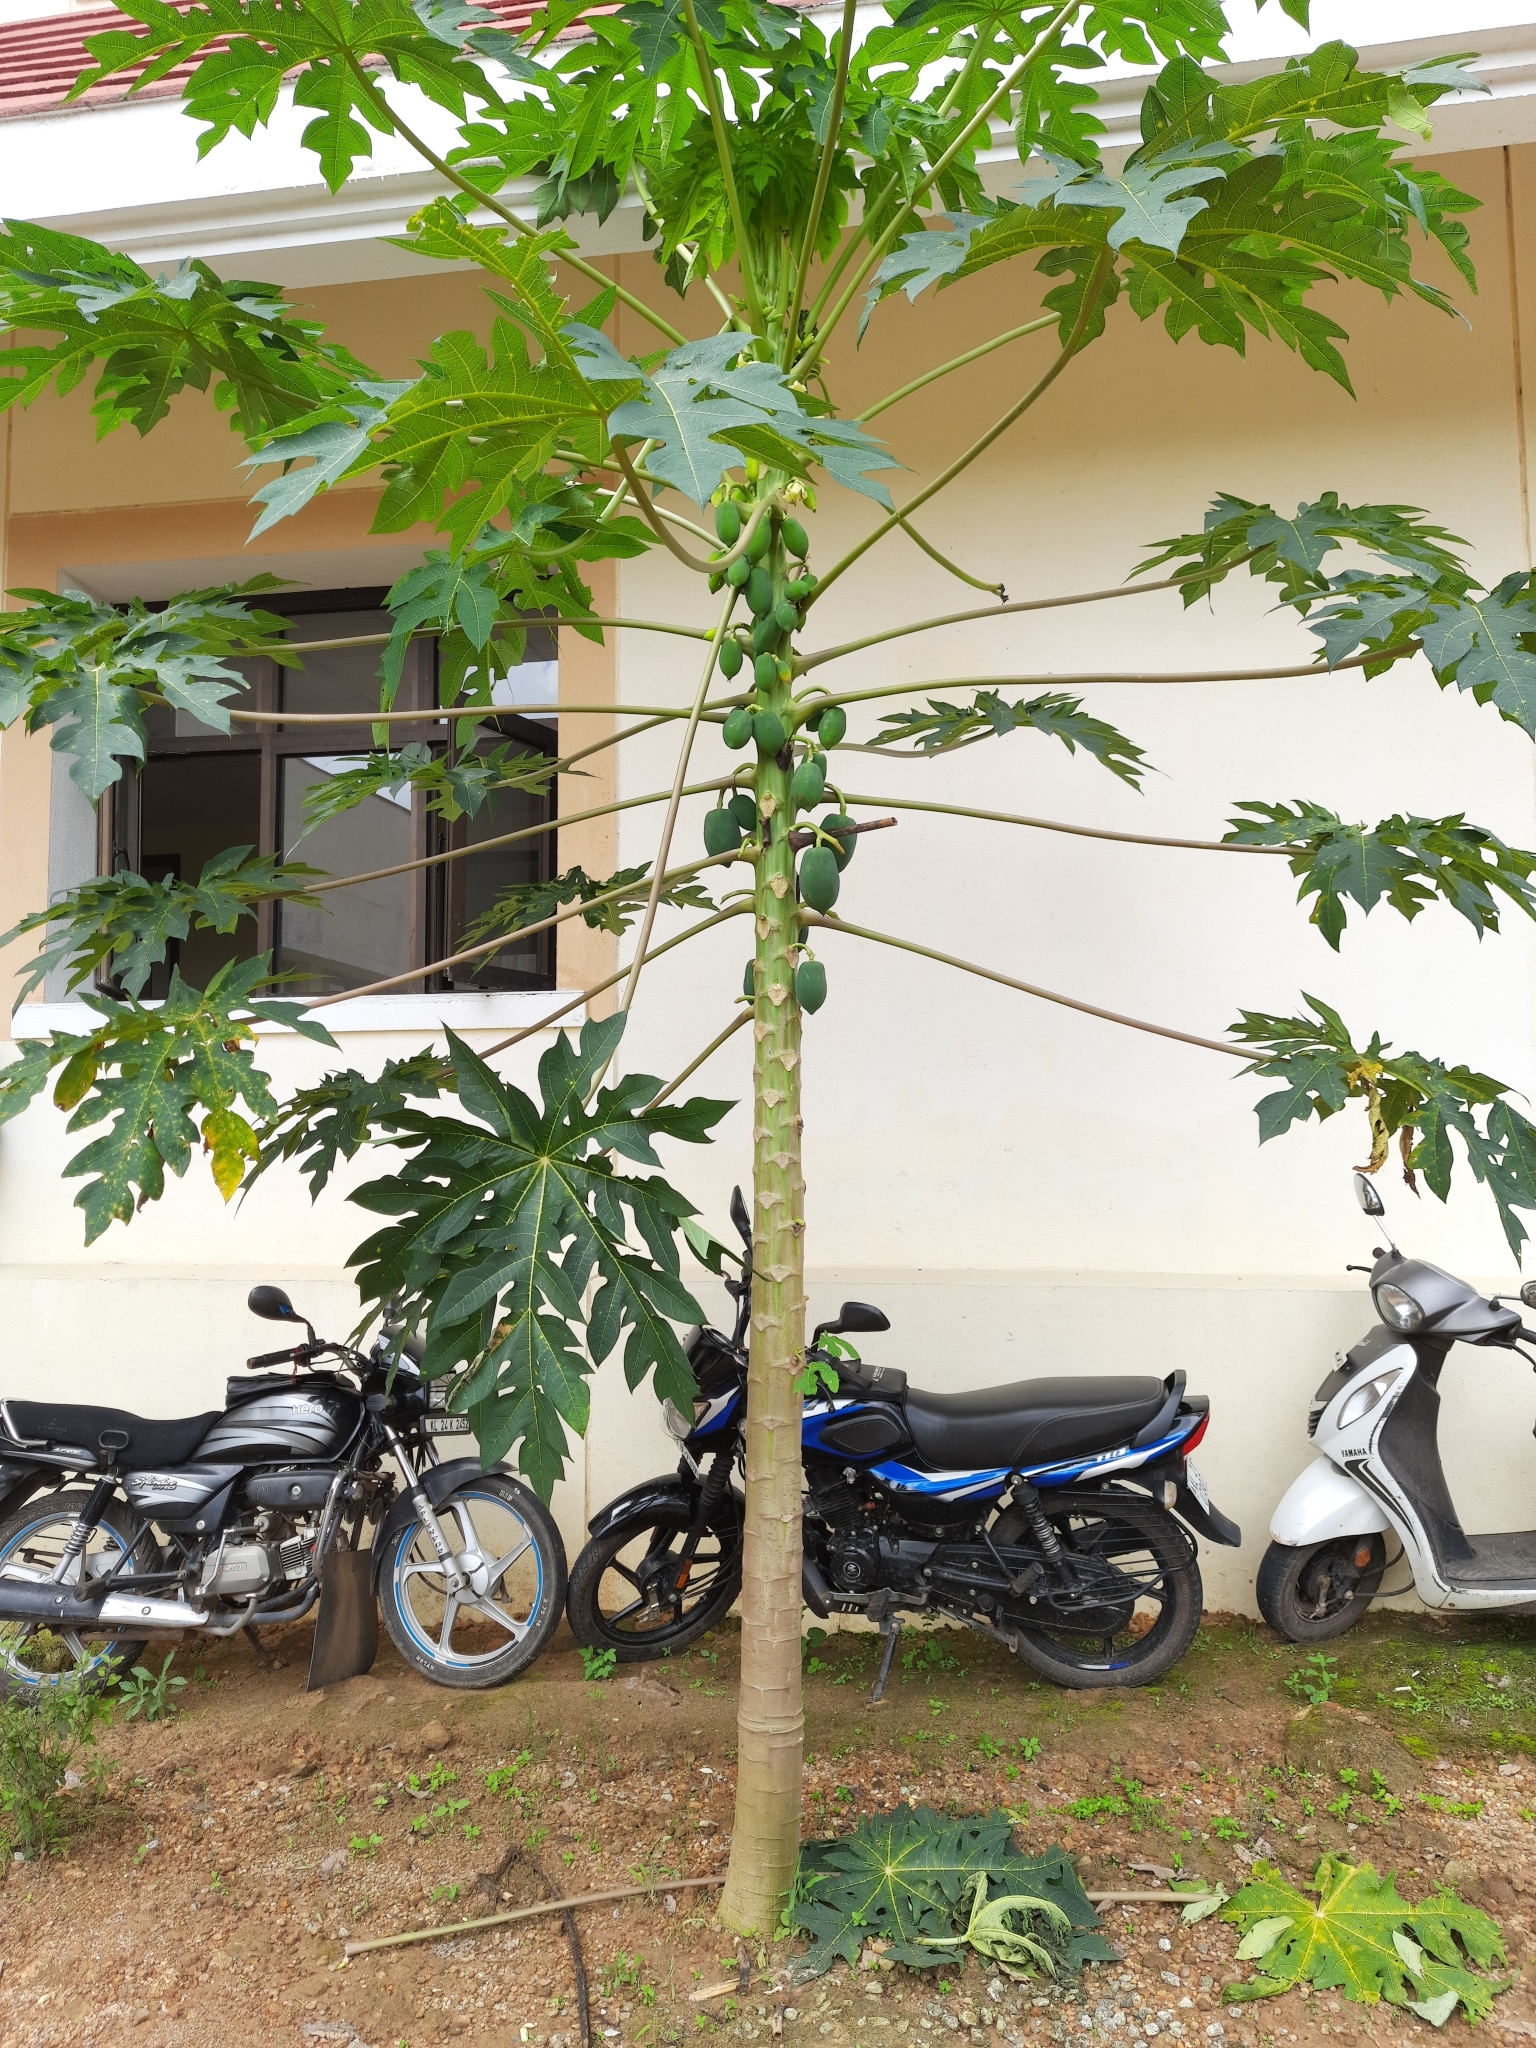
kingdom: Plantae
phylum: Tracheophyta
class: Magnoliopsida
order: Brassicales
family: Caricaceae
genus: Carica
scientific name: Carica papaya
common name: Papaya
